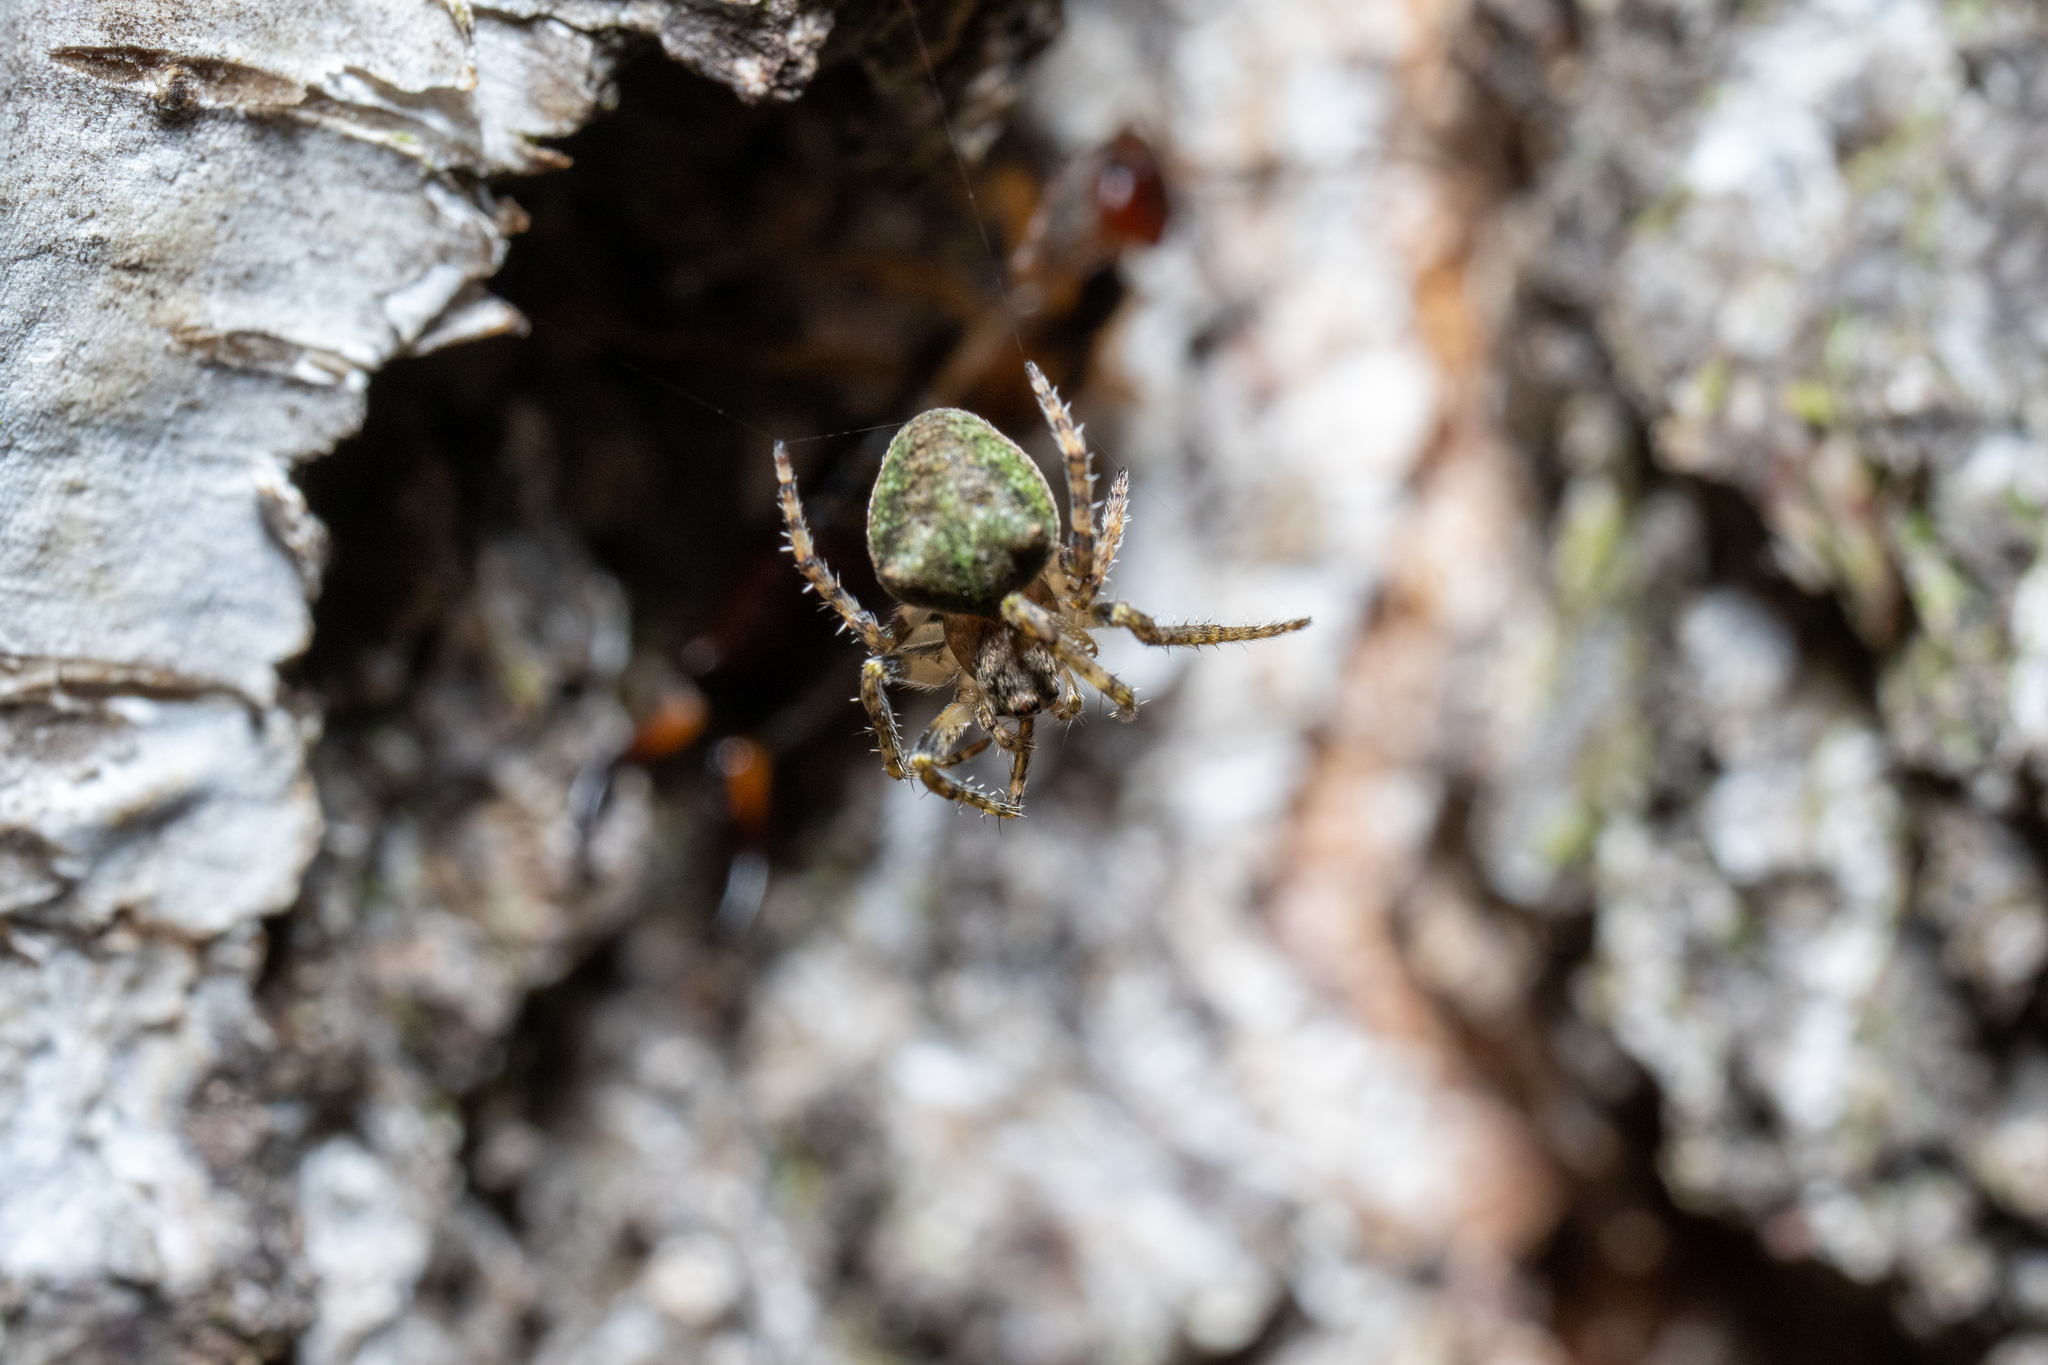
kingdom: Animalia
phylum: Arthropoda
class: Arachnida
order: Araneae
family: Araneidae
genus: Gibbaranea
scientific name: Gibbaranea gibbosa
